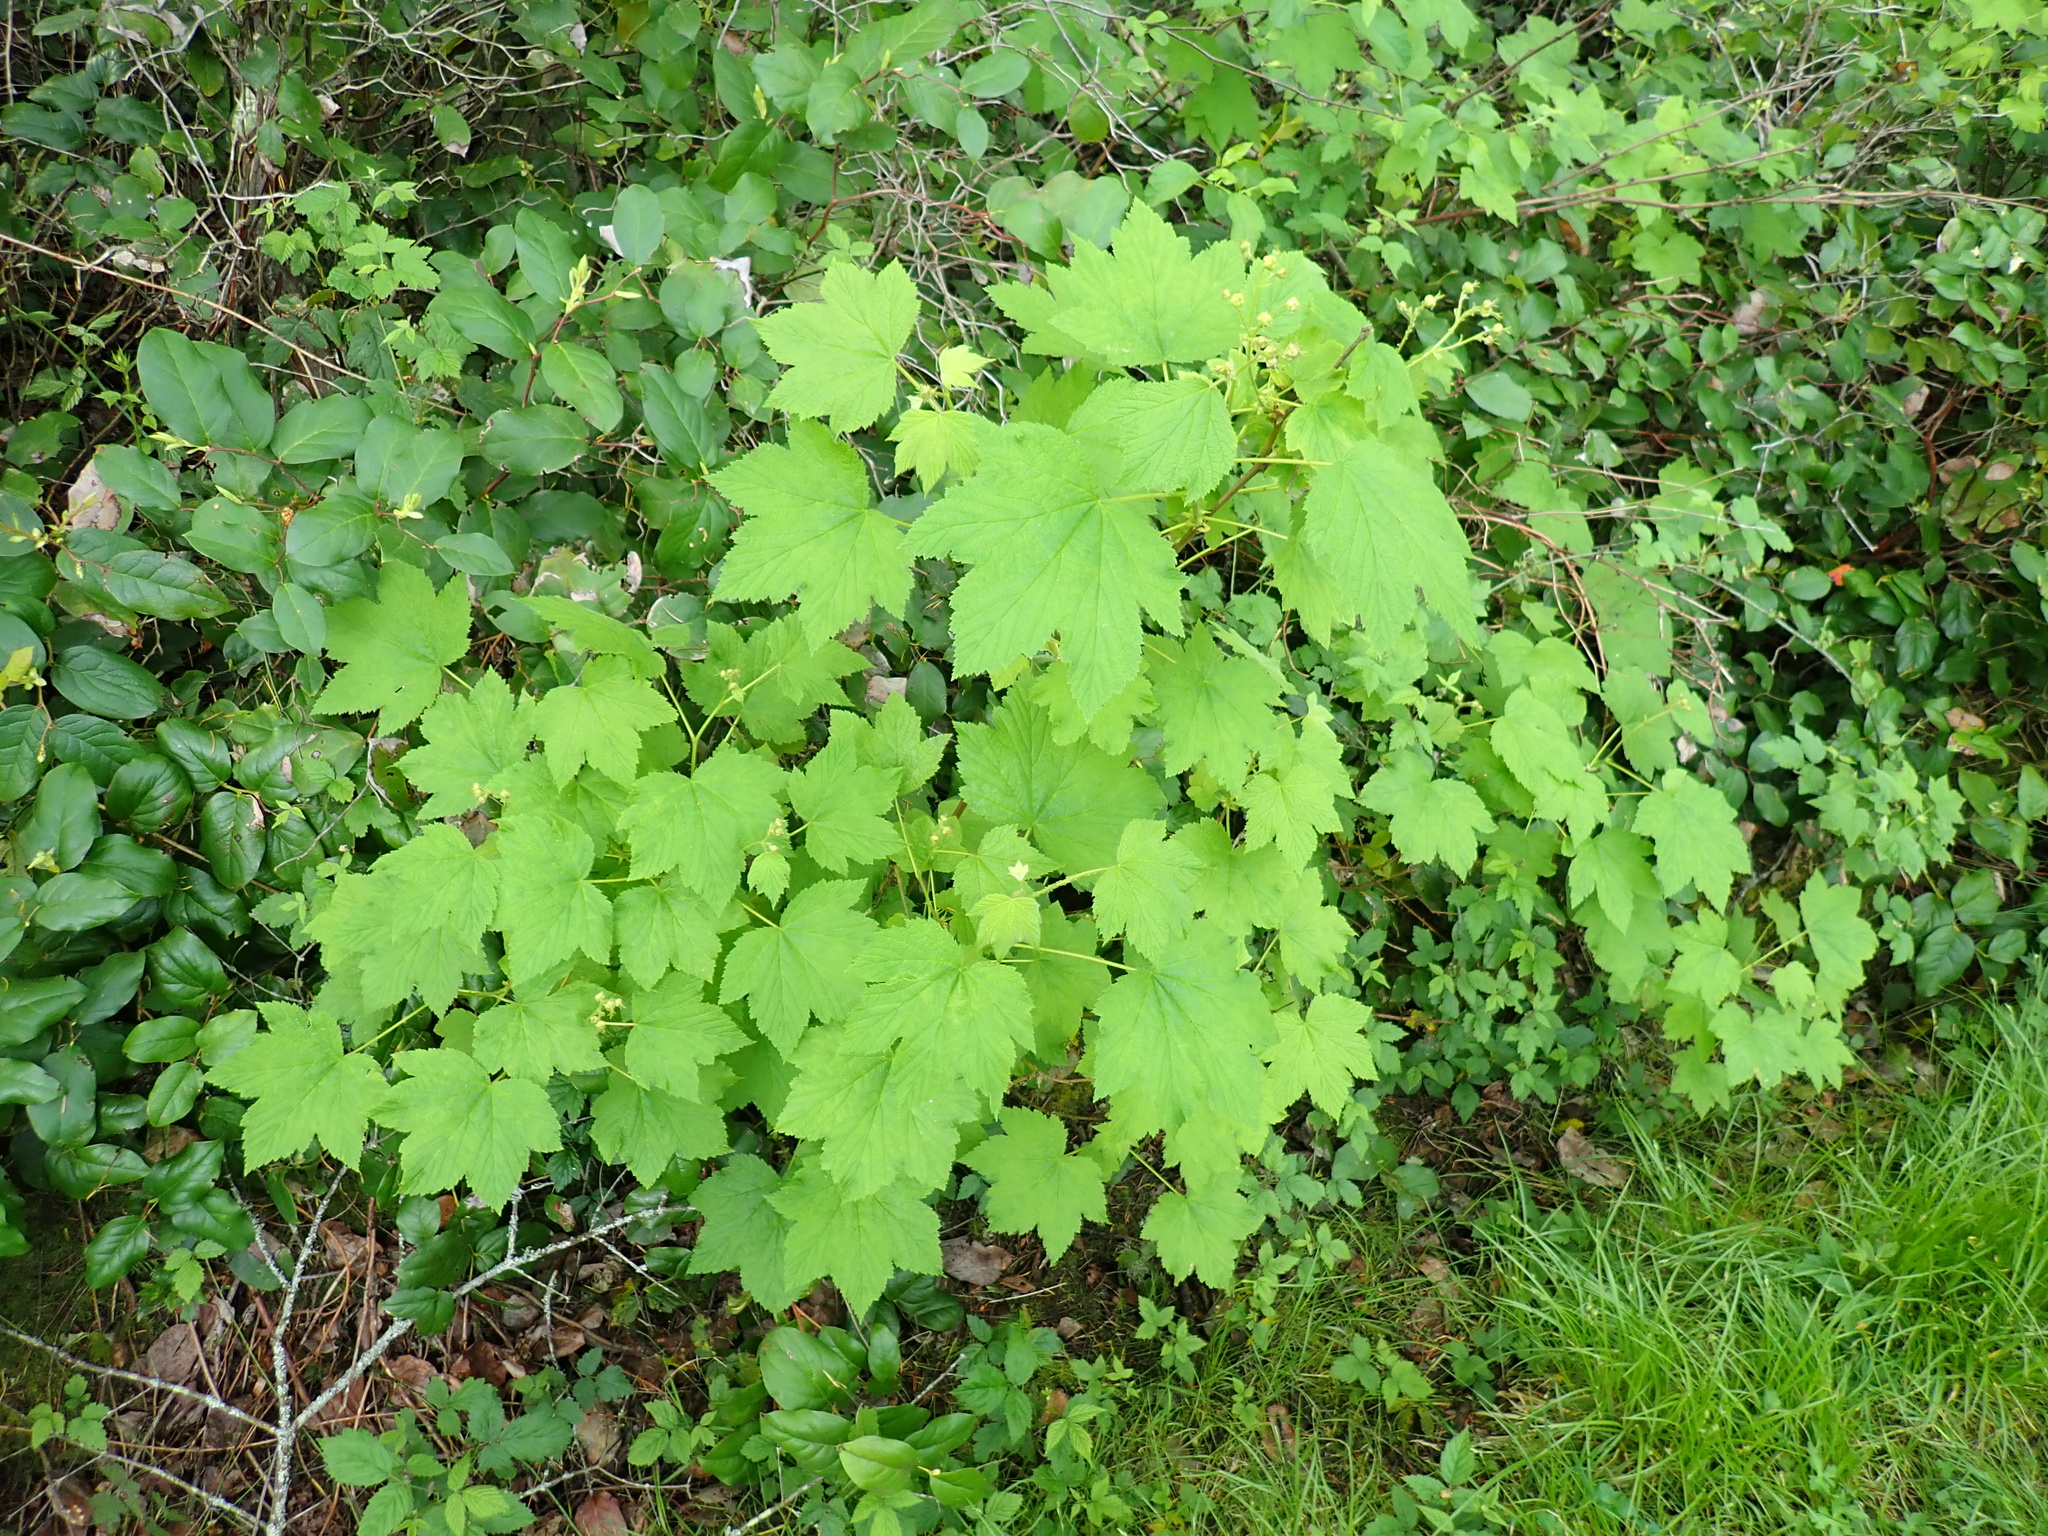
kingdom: Plantae
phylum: Tracheophyta
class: Magnoliopsida
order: Rosales
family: Rosaceae
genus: Rubus
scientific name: Rubus parviflorus
